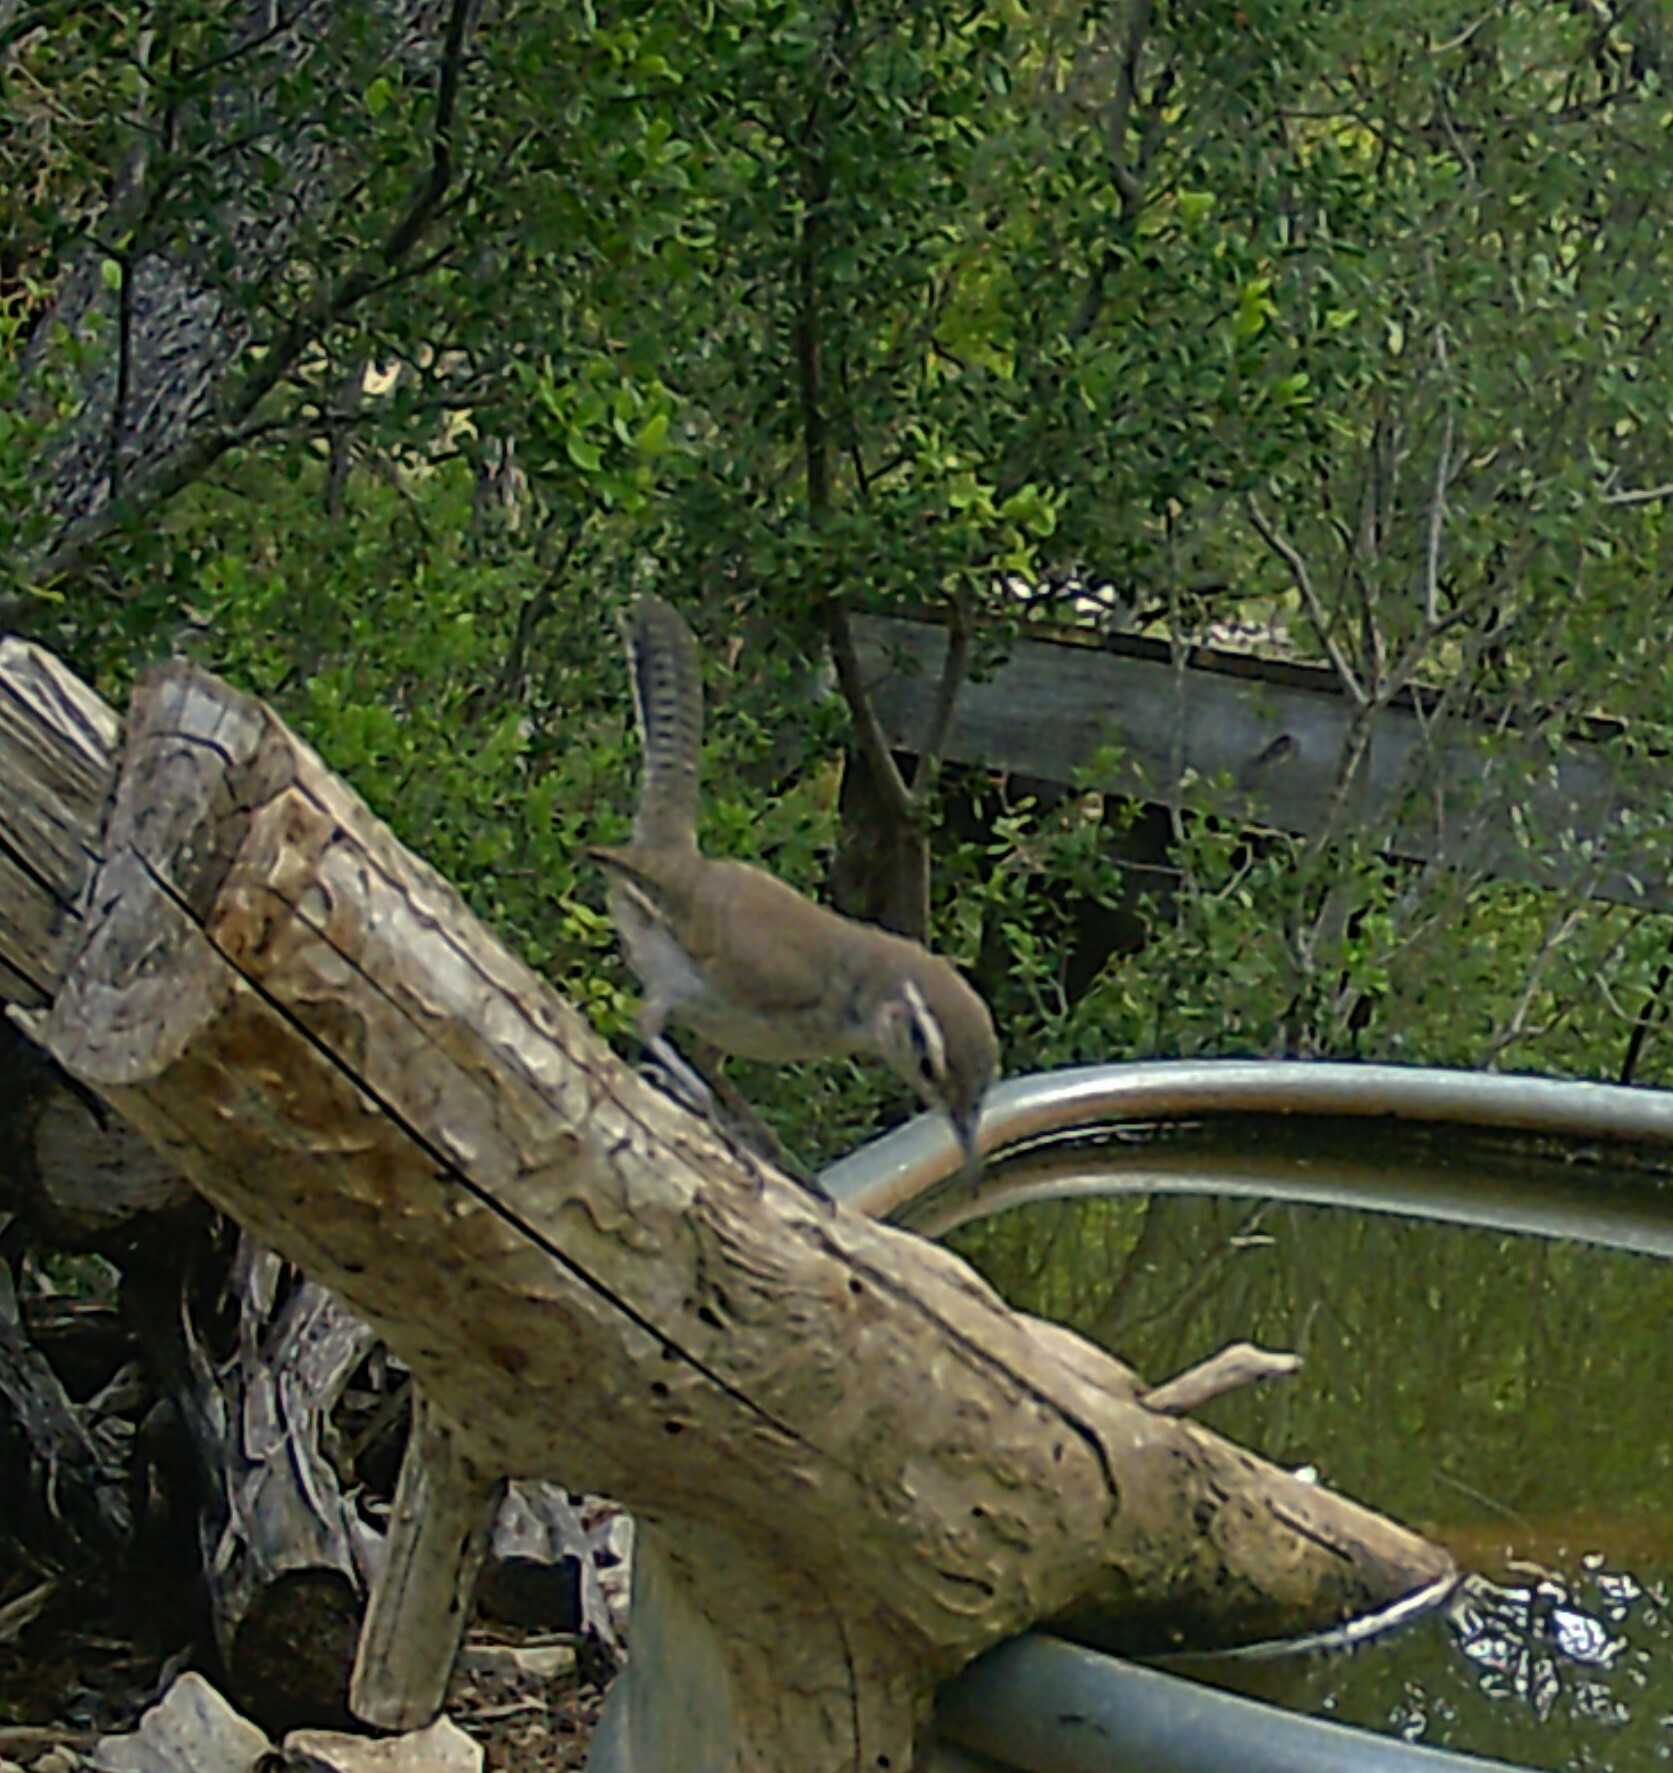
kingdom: Animalia
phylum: Chordata
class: Aves
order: Passeriformes
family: Troglodytidae
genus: Thryomanes
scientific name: Thryomanes bewickii
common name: Bewick's wren
